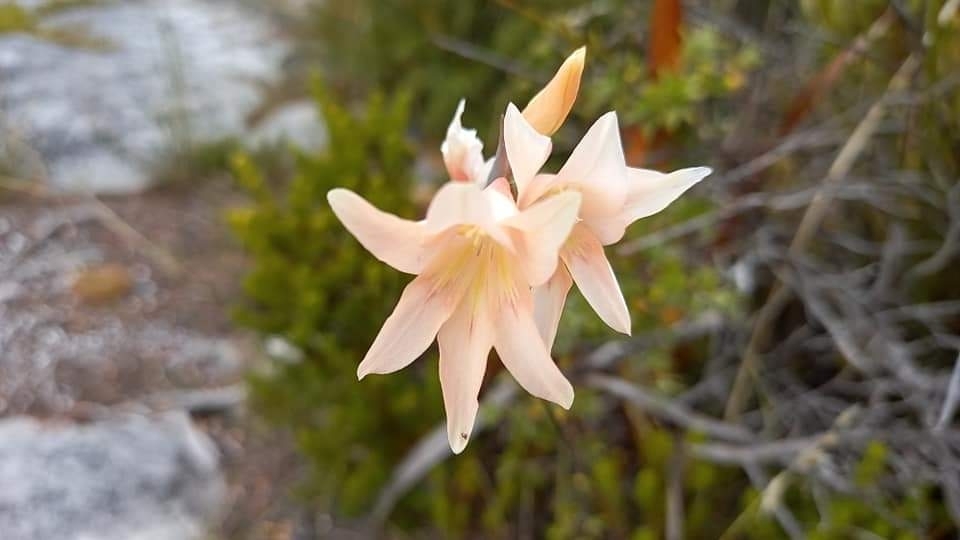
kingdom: Plantae
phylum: Tracheophyta
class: Liliopsida
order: Asparagales
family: Iridaceae
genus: Gladiolus
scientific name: Gladiolus monticola
